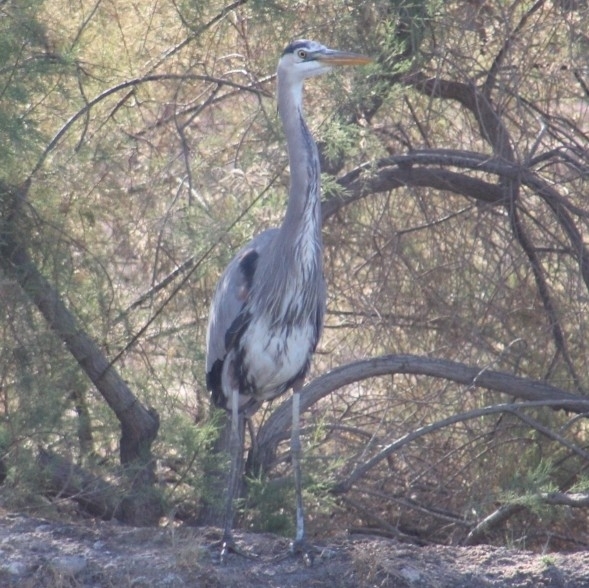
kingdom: Animalia
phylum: Chordata
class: Aves
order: Pelecaniformes
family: Ardeidae
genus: Ardea
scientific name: Ardea herodias
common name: Great blue heron
